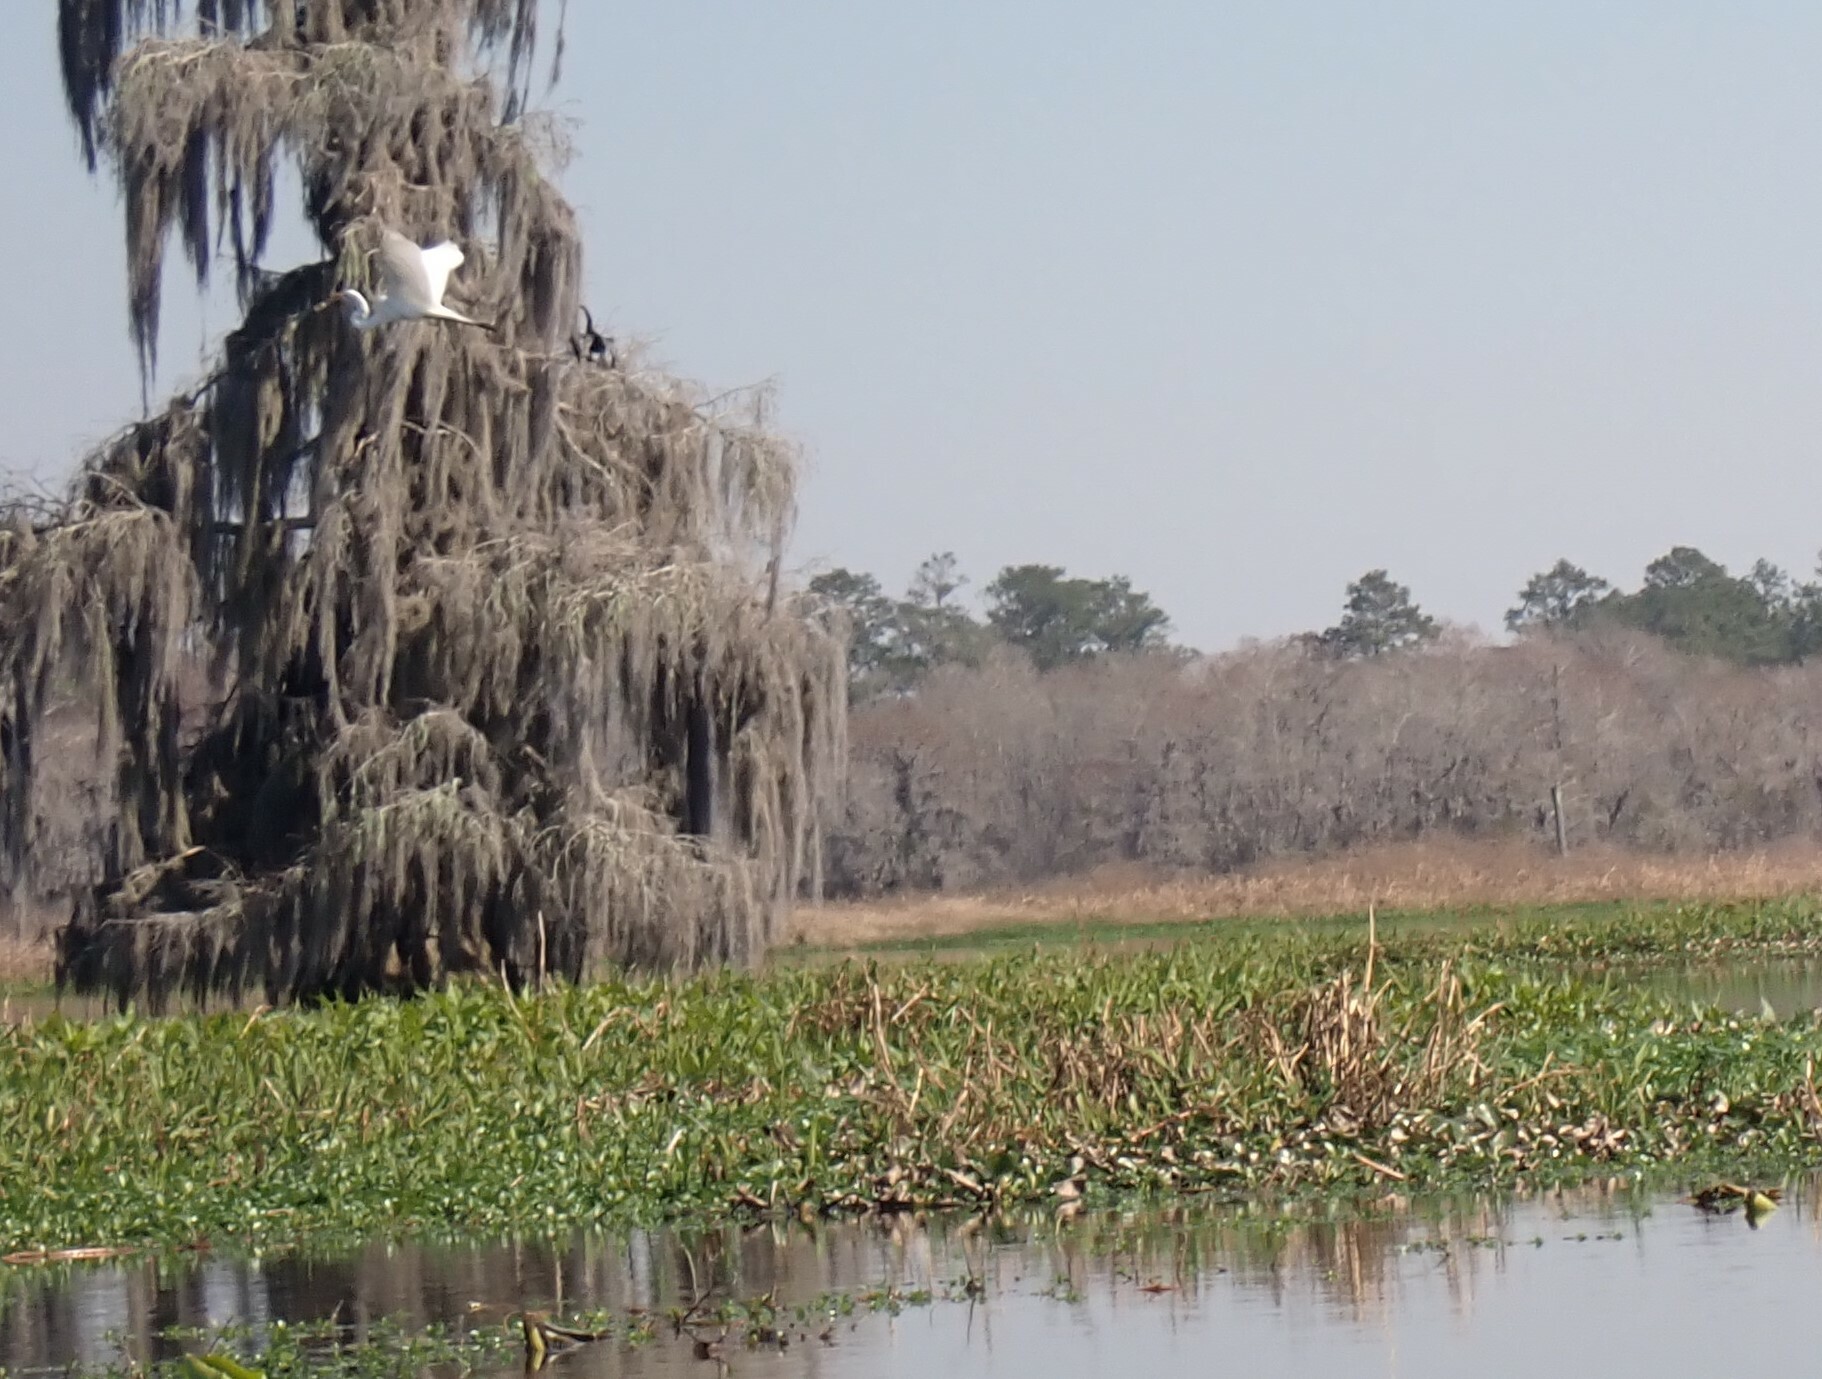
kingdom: Animalia
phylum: Chordata
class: Aves
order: Pelecaniformes
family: Ardeidae
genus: Ardea
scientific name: Ardea alba
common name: Great egret
